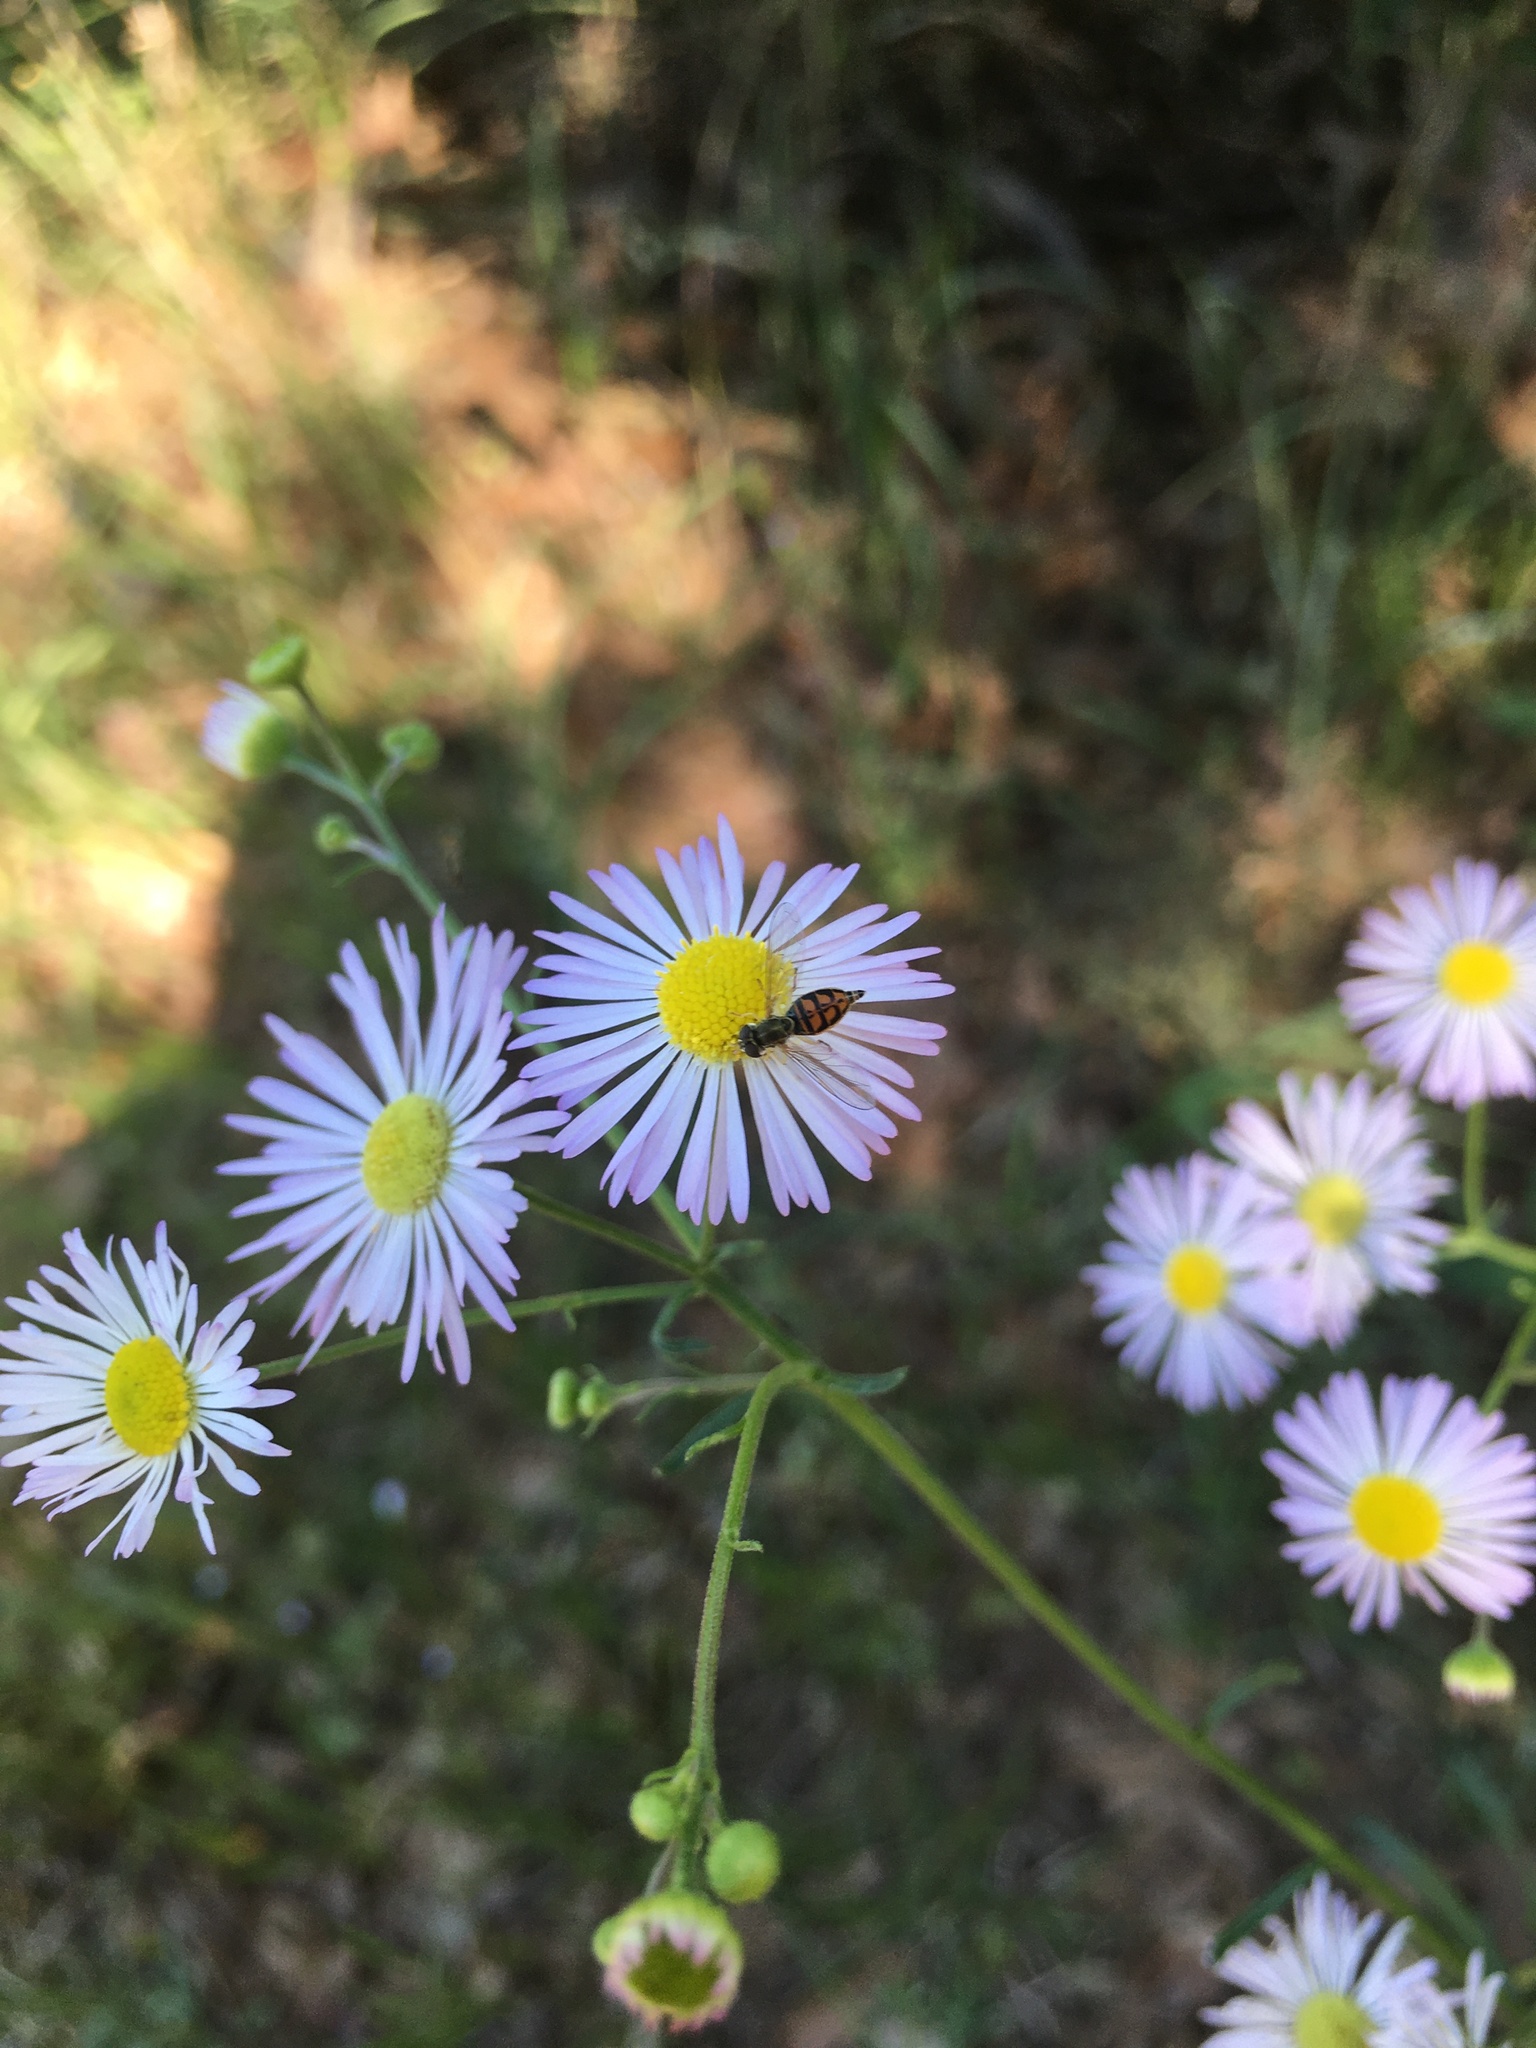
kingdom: Animalia
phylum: Arthropoda
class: Insecta
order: Diptera
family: Syrphidae
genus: Toxomerus
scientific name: Toxomerus marginatus
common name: Syrphid fly
